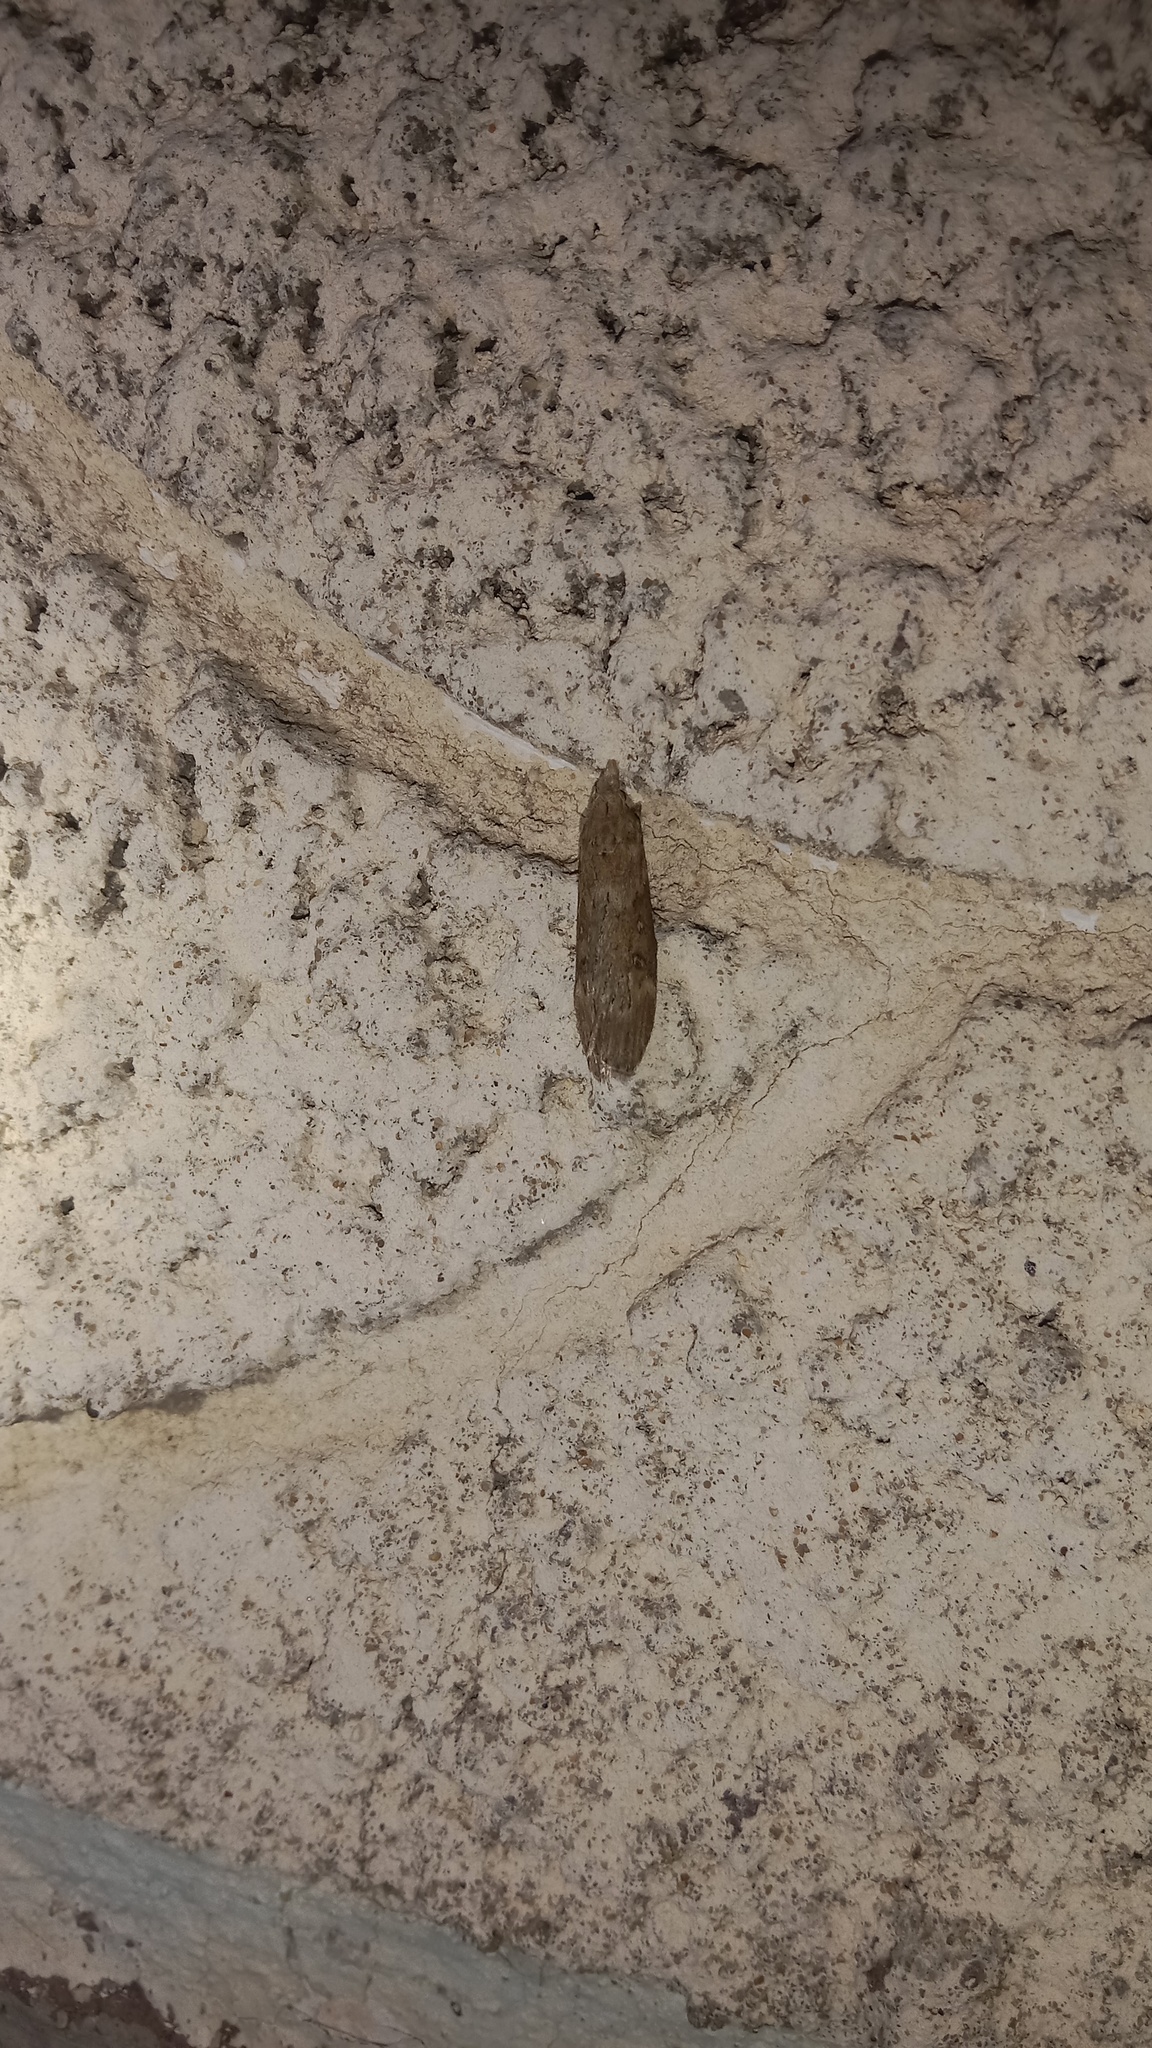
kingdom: Animalia
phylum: Arthropoda
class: Insecta
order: Lepidoptera
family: Pyralidae
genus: Lamoria
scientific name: Lamoria anella
